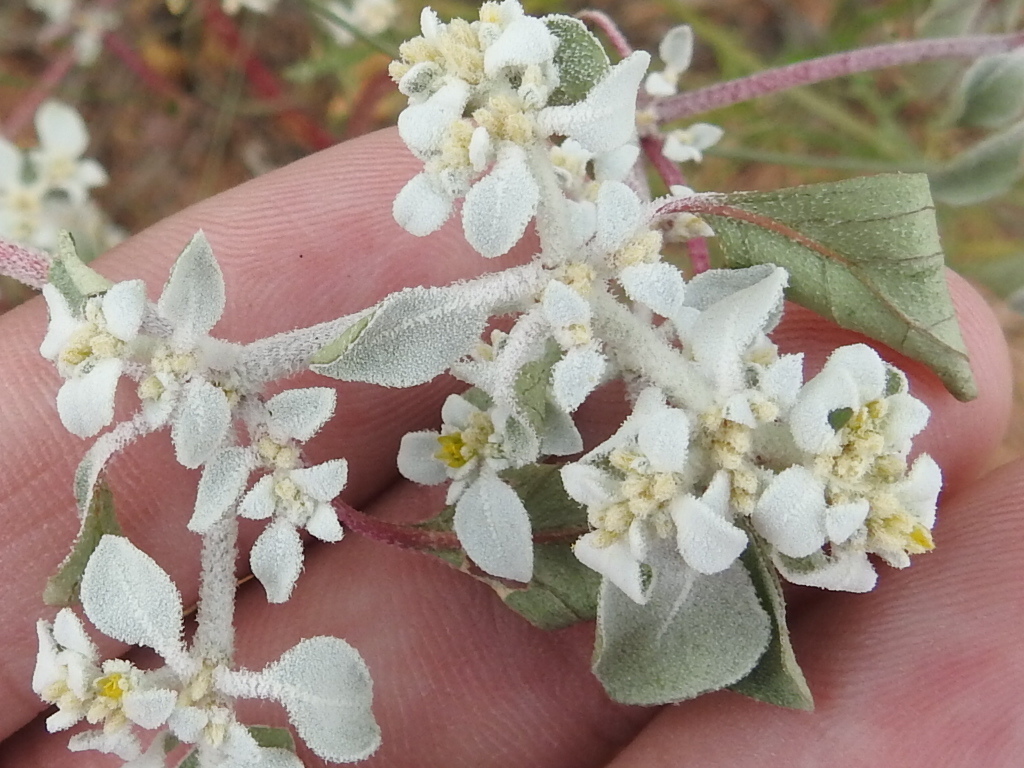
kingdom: Plantae
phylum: Tracheophyta
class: Magnoliopsida
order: Caryophyllales
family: Amaranthaceae
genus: Tidestromia
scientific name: Tidestromia lanuginosa
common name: Woolly tidestromia
